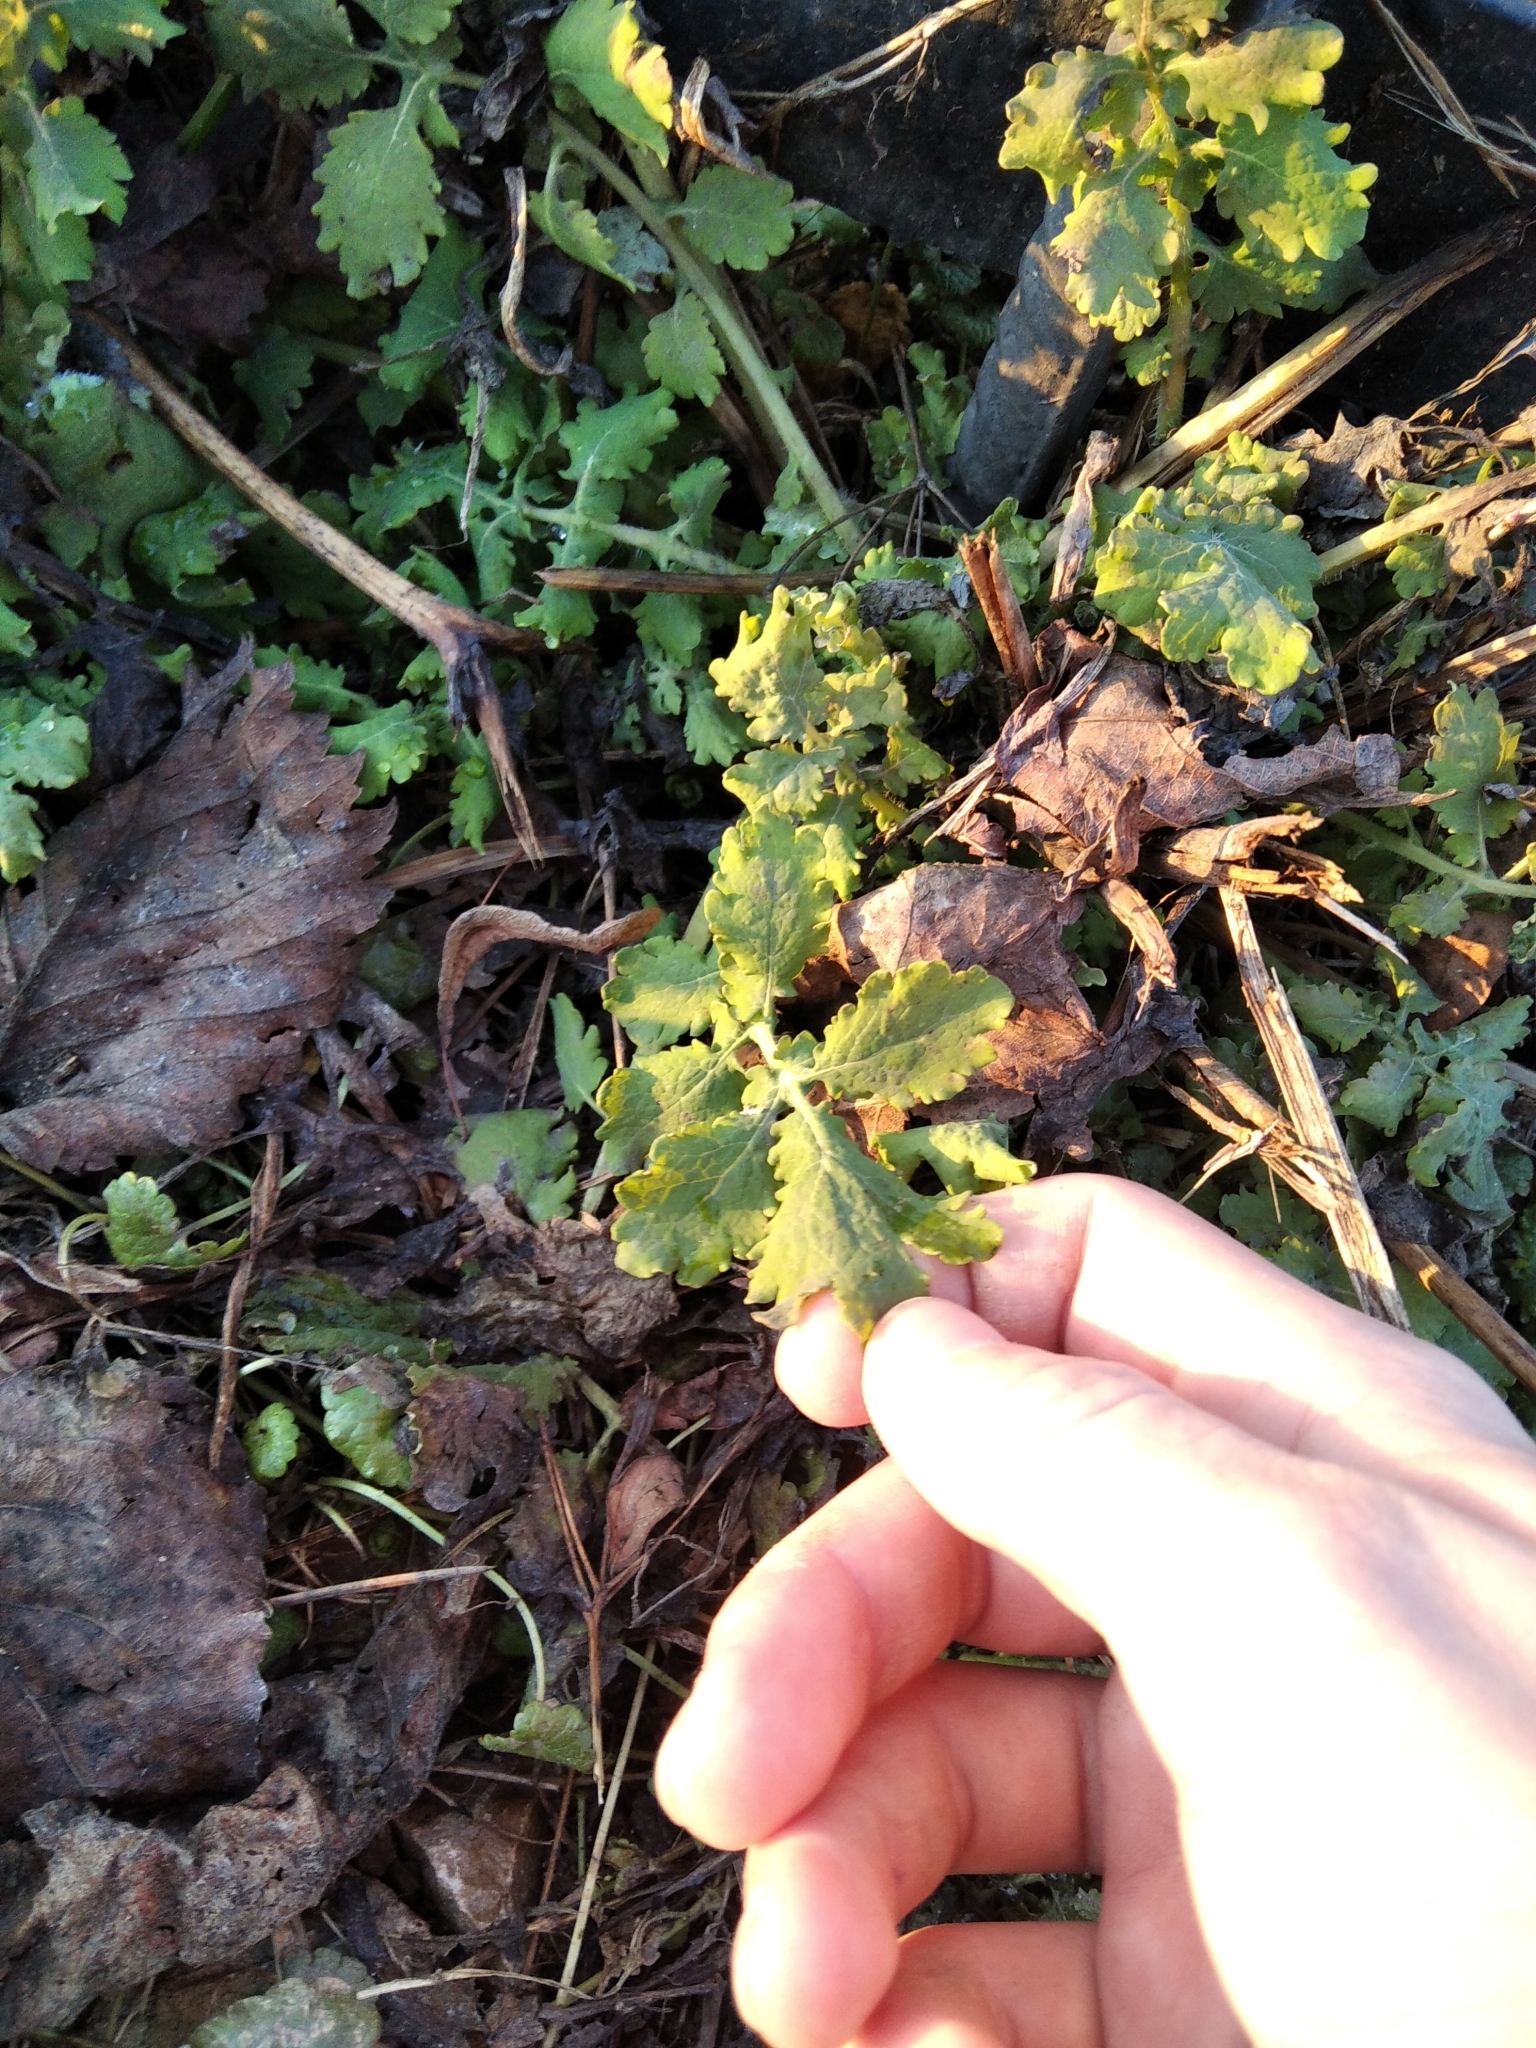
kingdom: Plantae
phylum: Tracheophyta
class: Magnoliopsida
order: Ranunculales
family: Papaveraceae
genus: Chelidonium
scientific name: Chelidonium majus
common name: Greater celandine
